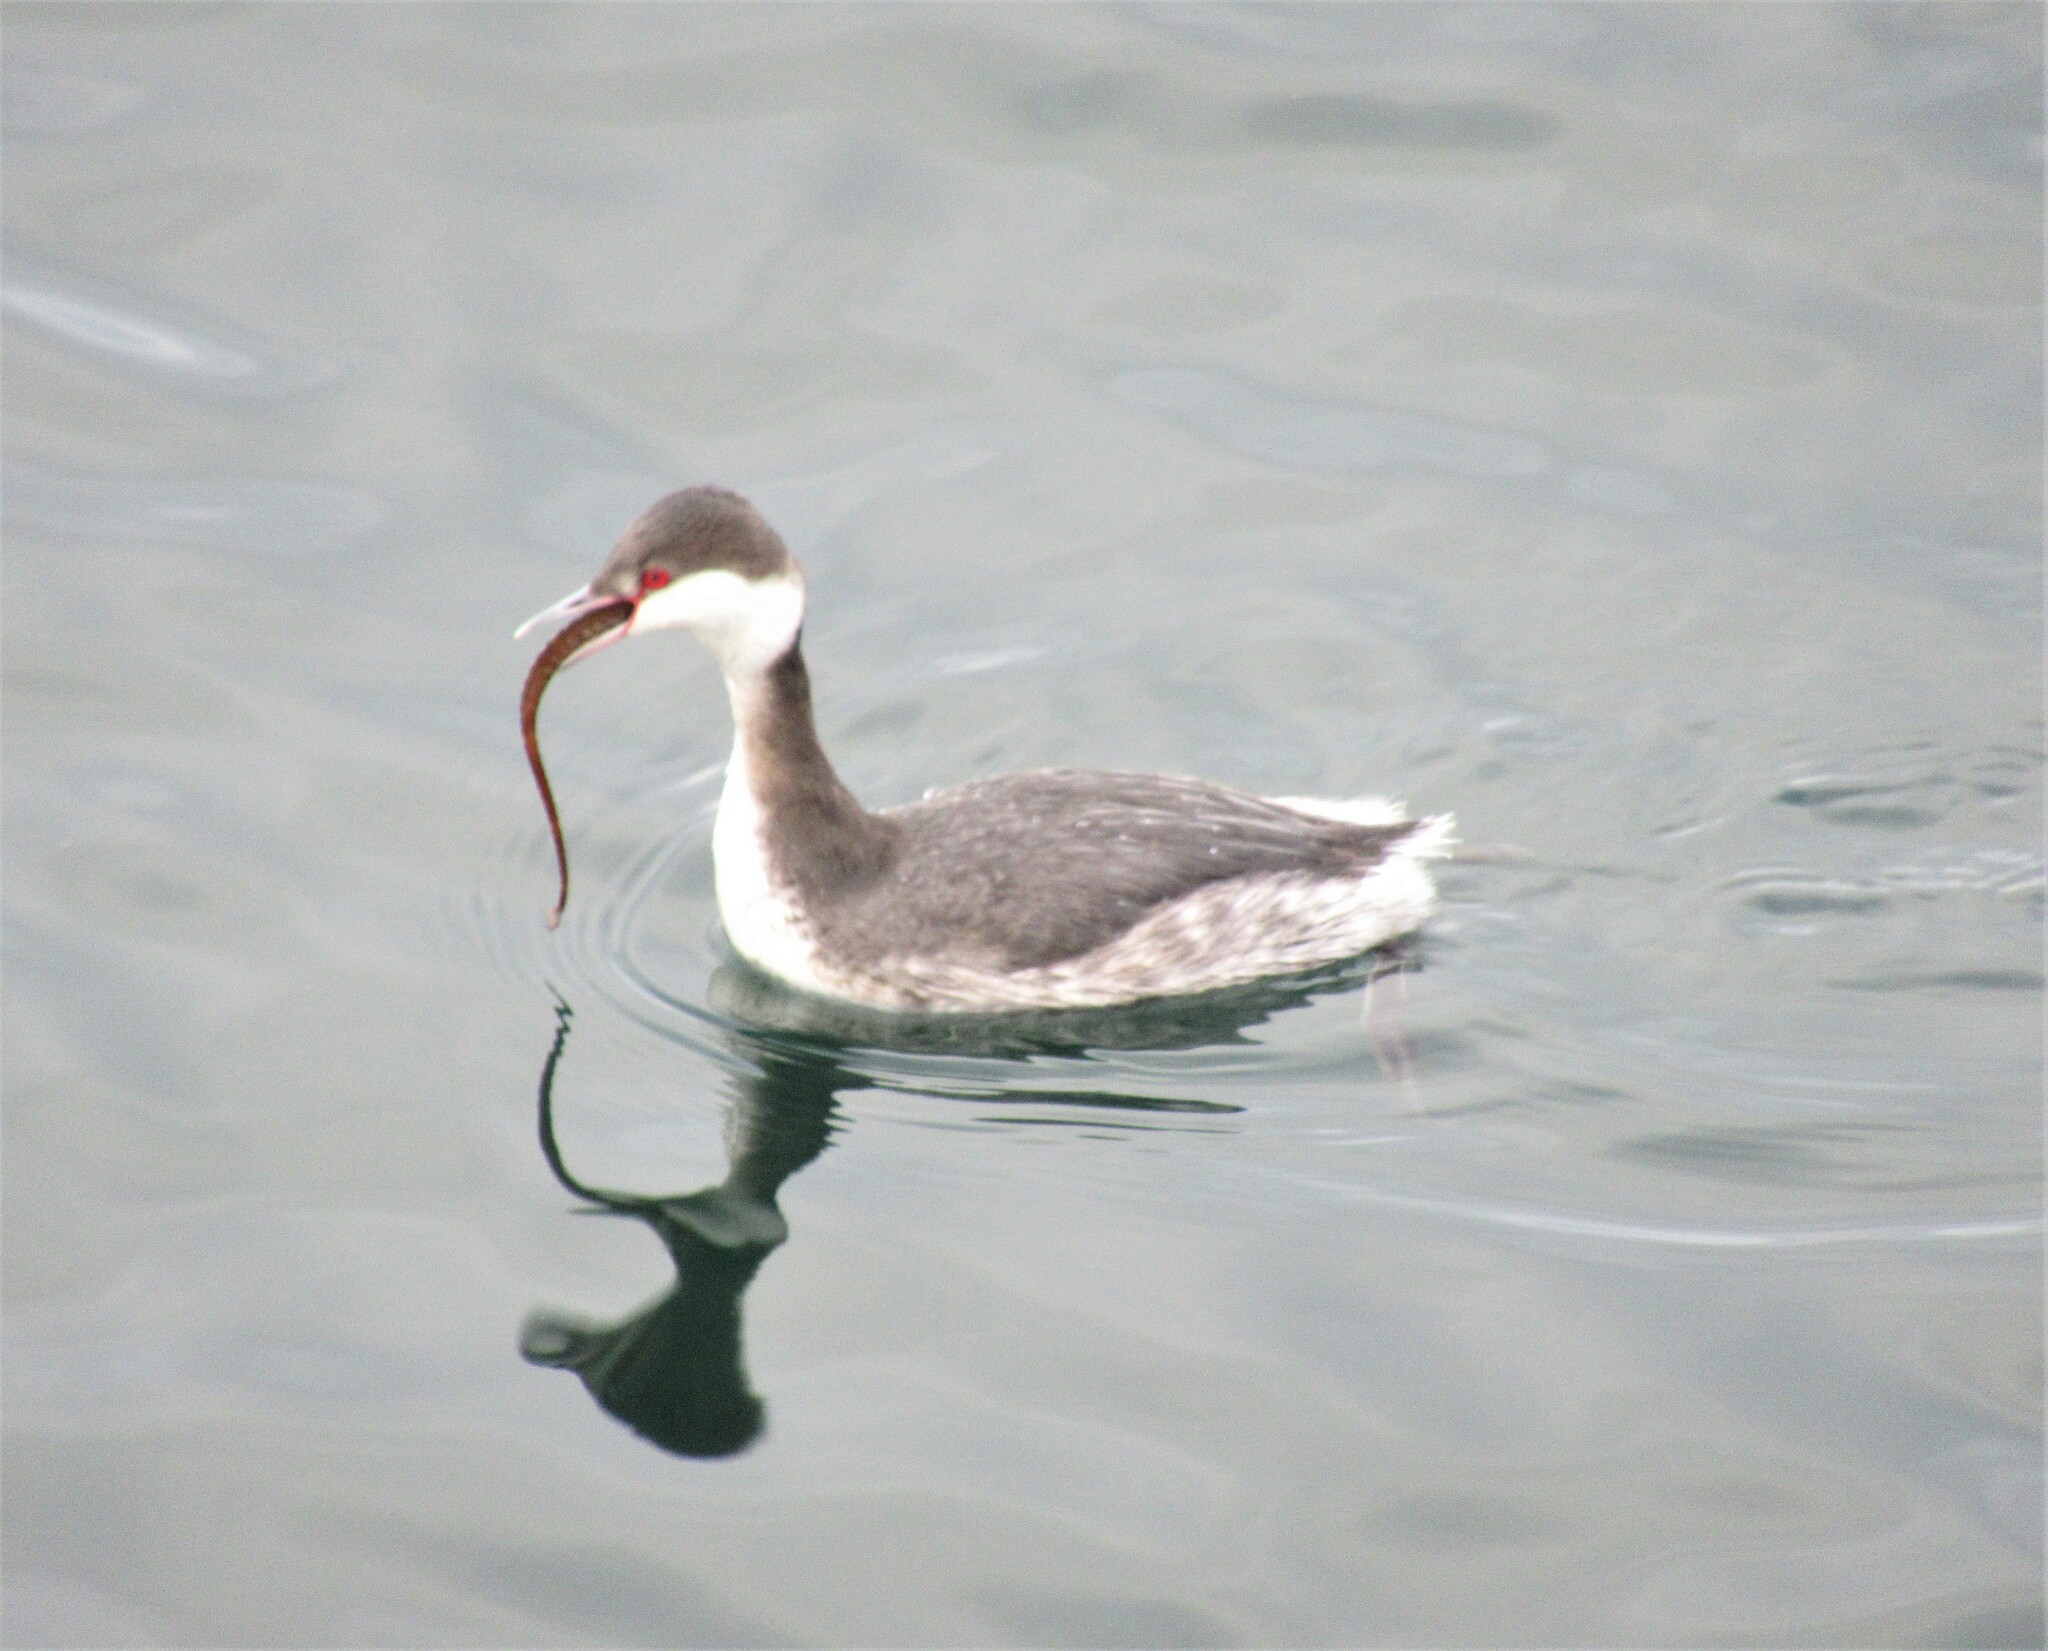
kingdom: Animalia
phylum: Chordata
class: Aves
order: Podicipediformes
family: Podicipedidae
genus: Podiceps
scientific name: Podiceps auritus
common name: Horned grebe
